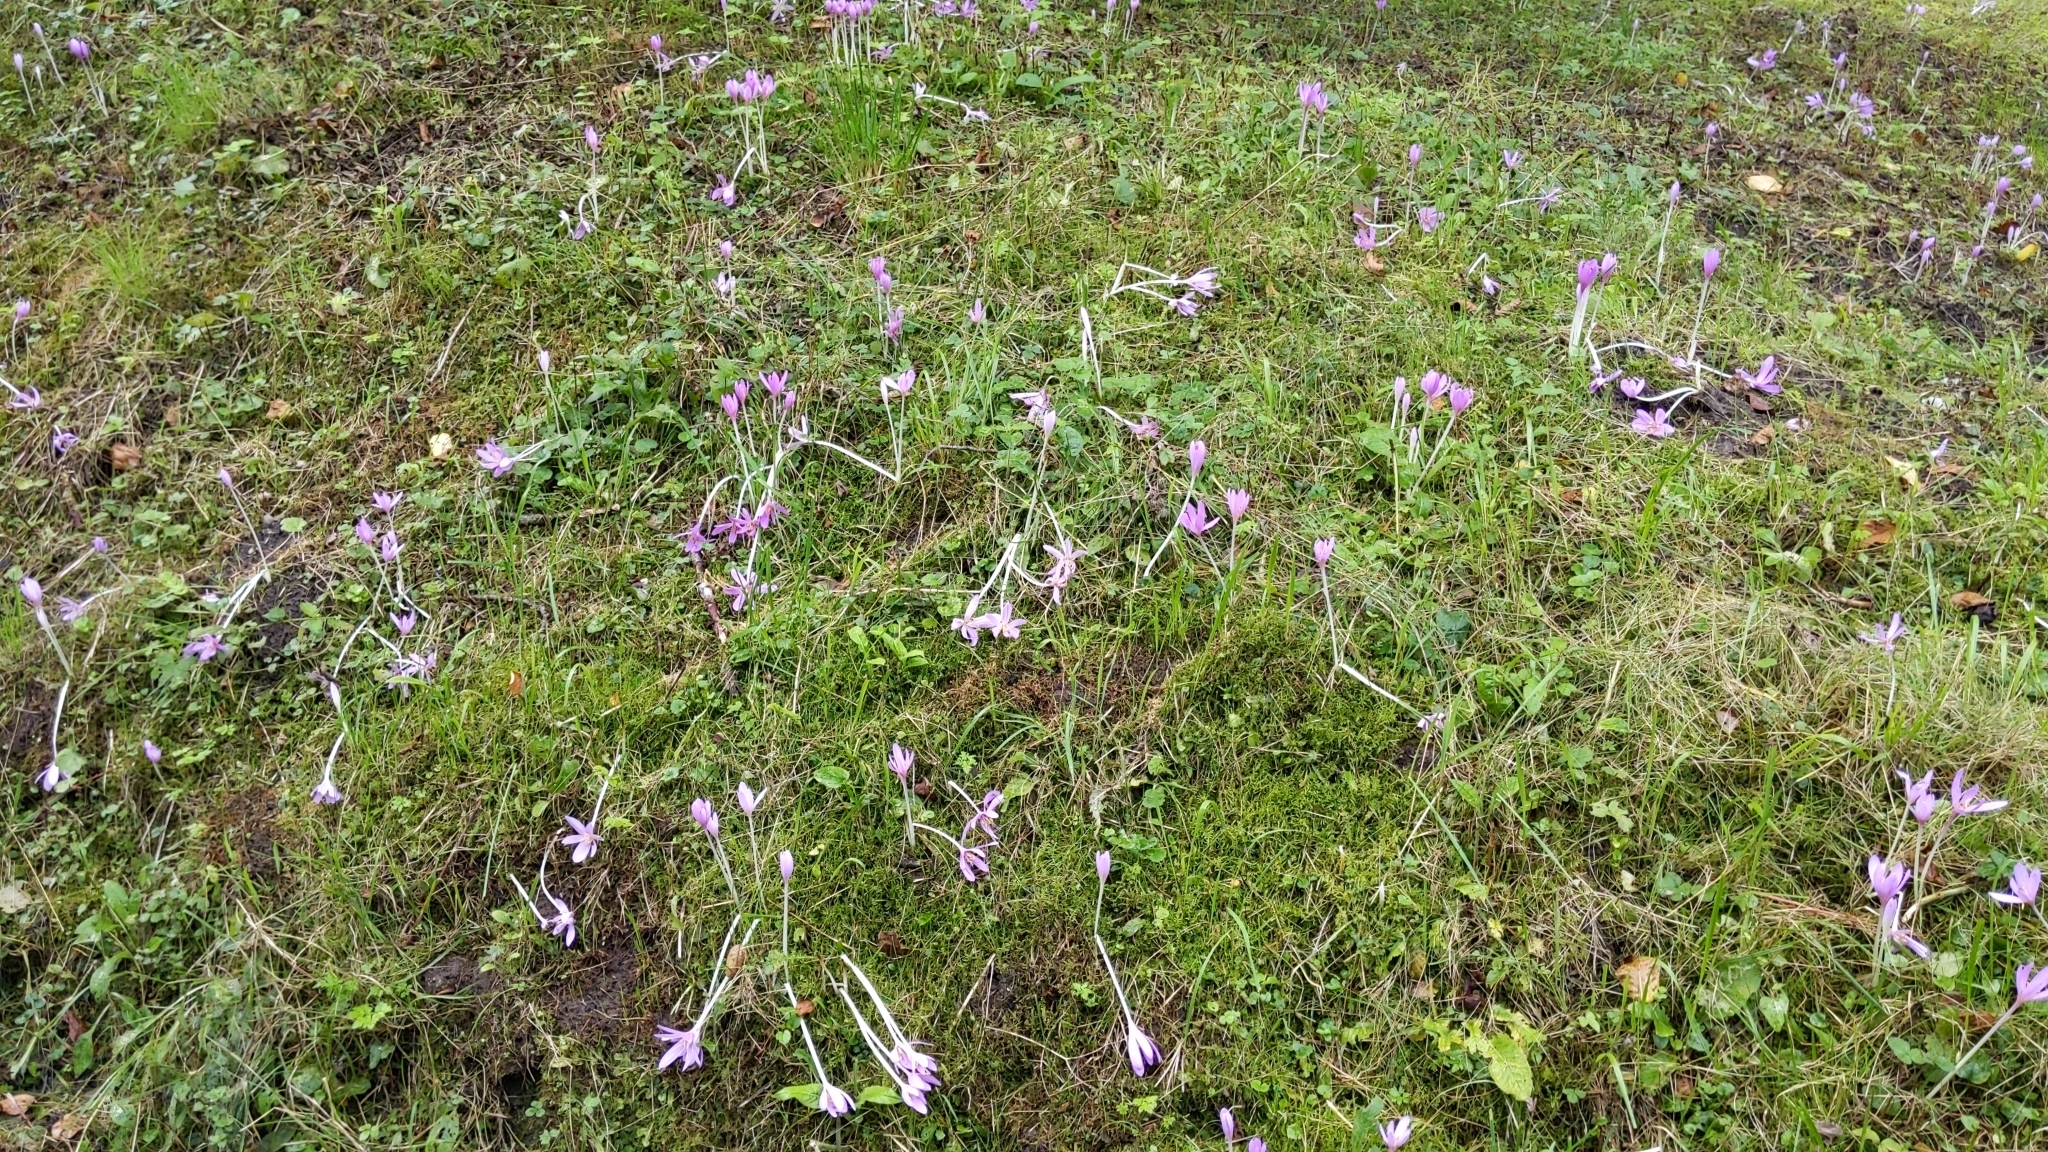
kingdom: Plantae
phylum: Tracheophyta
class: Liliopsida
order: Liliales
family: Colchicaceae
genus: Colchicum
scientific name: Colchicum autumnale
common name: Autumn crocus
